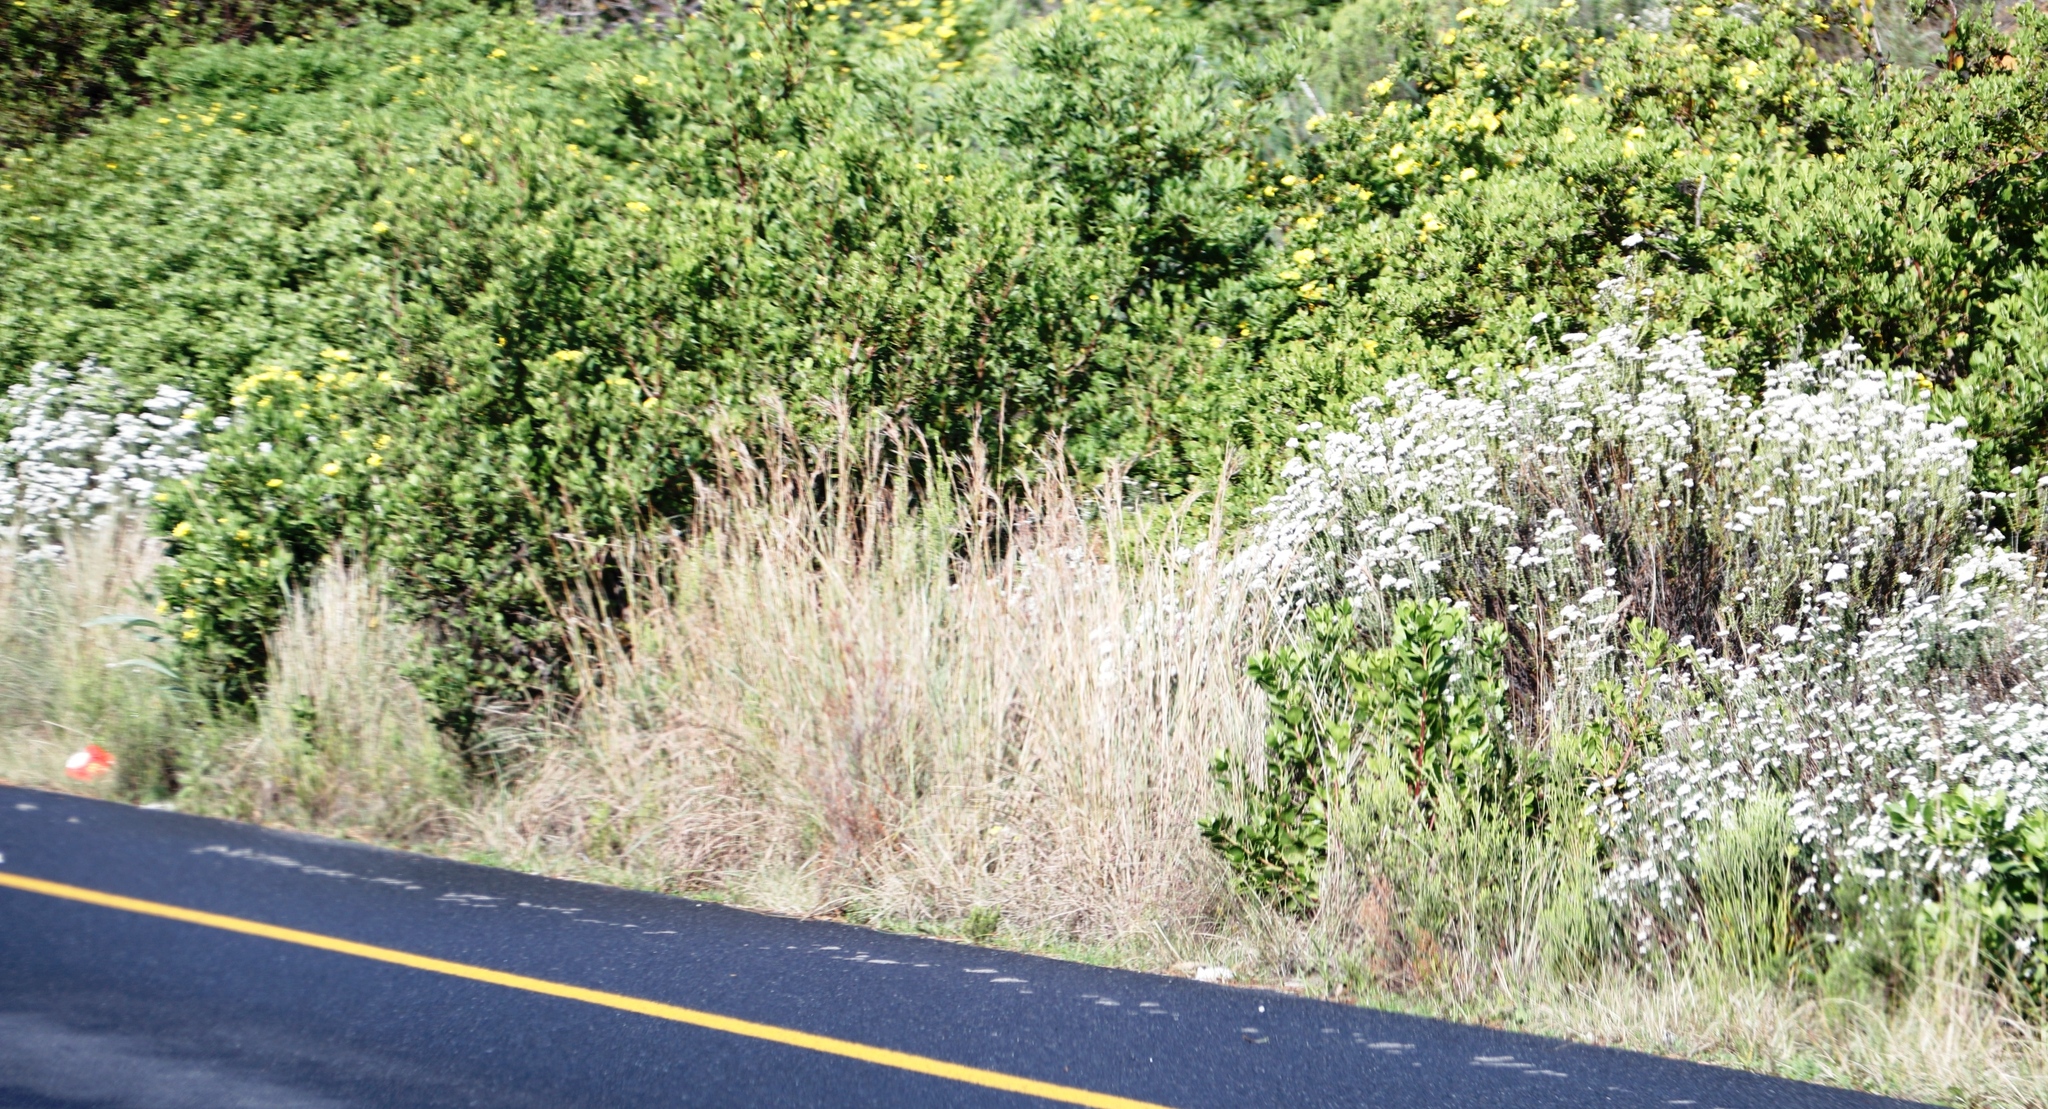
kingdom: Plantae
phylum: Tracheophyta
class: Magnoliopsida
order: Asterales
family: Asteraceae
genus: Osteospermum
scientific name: Osteospermum moniliferum
